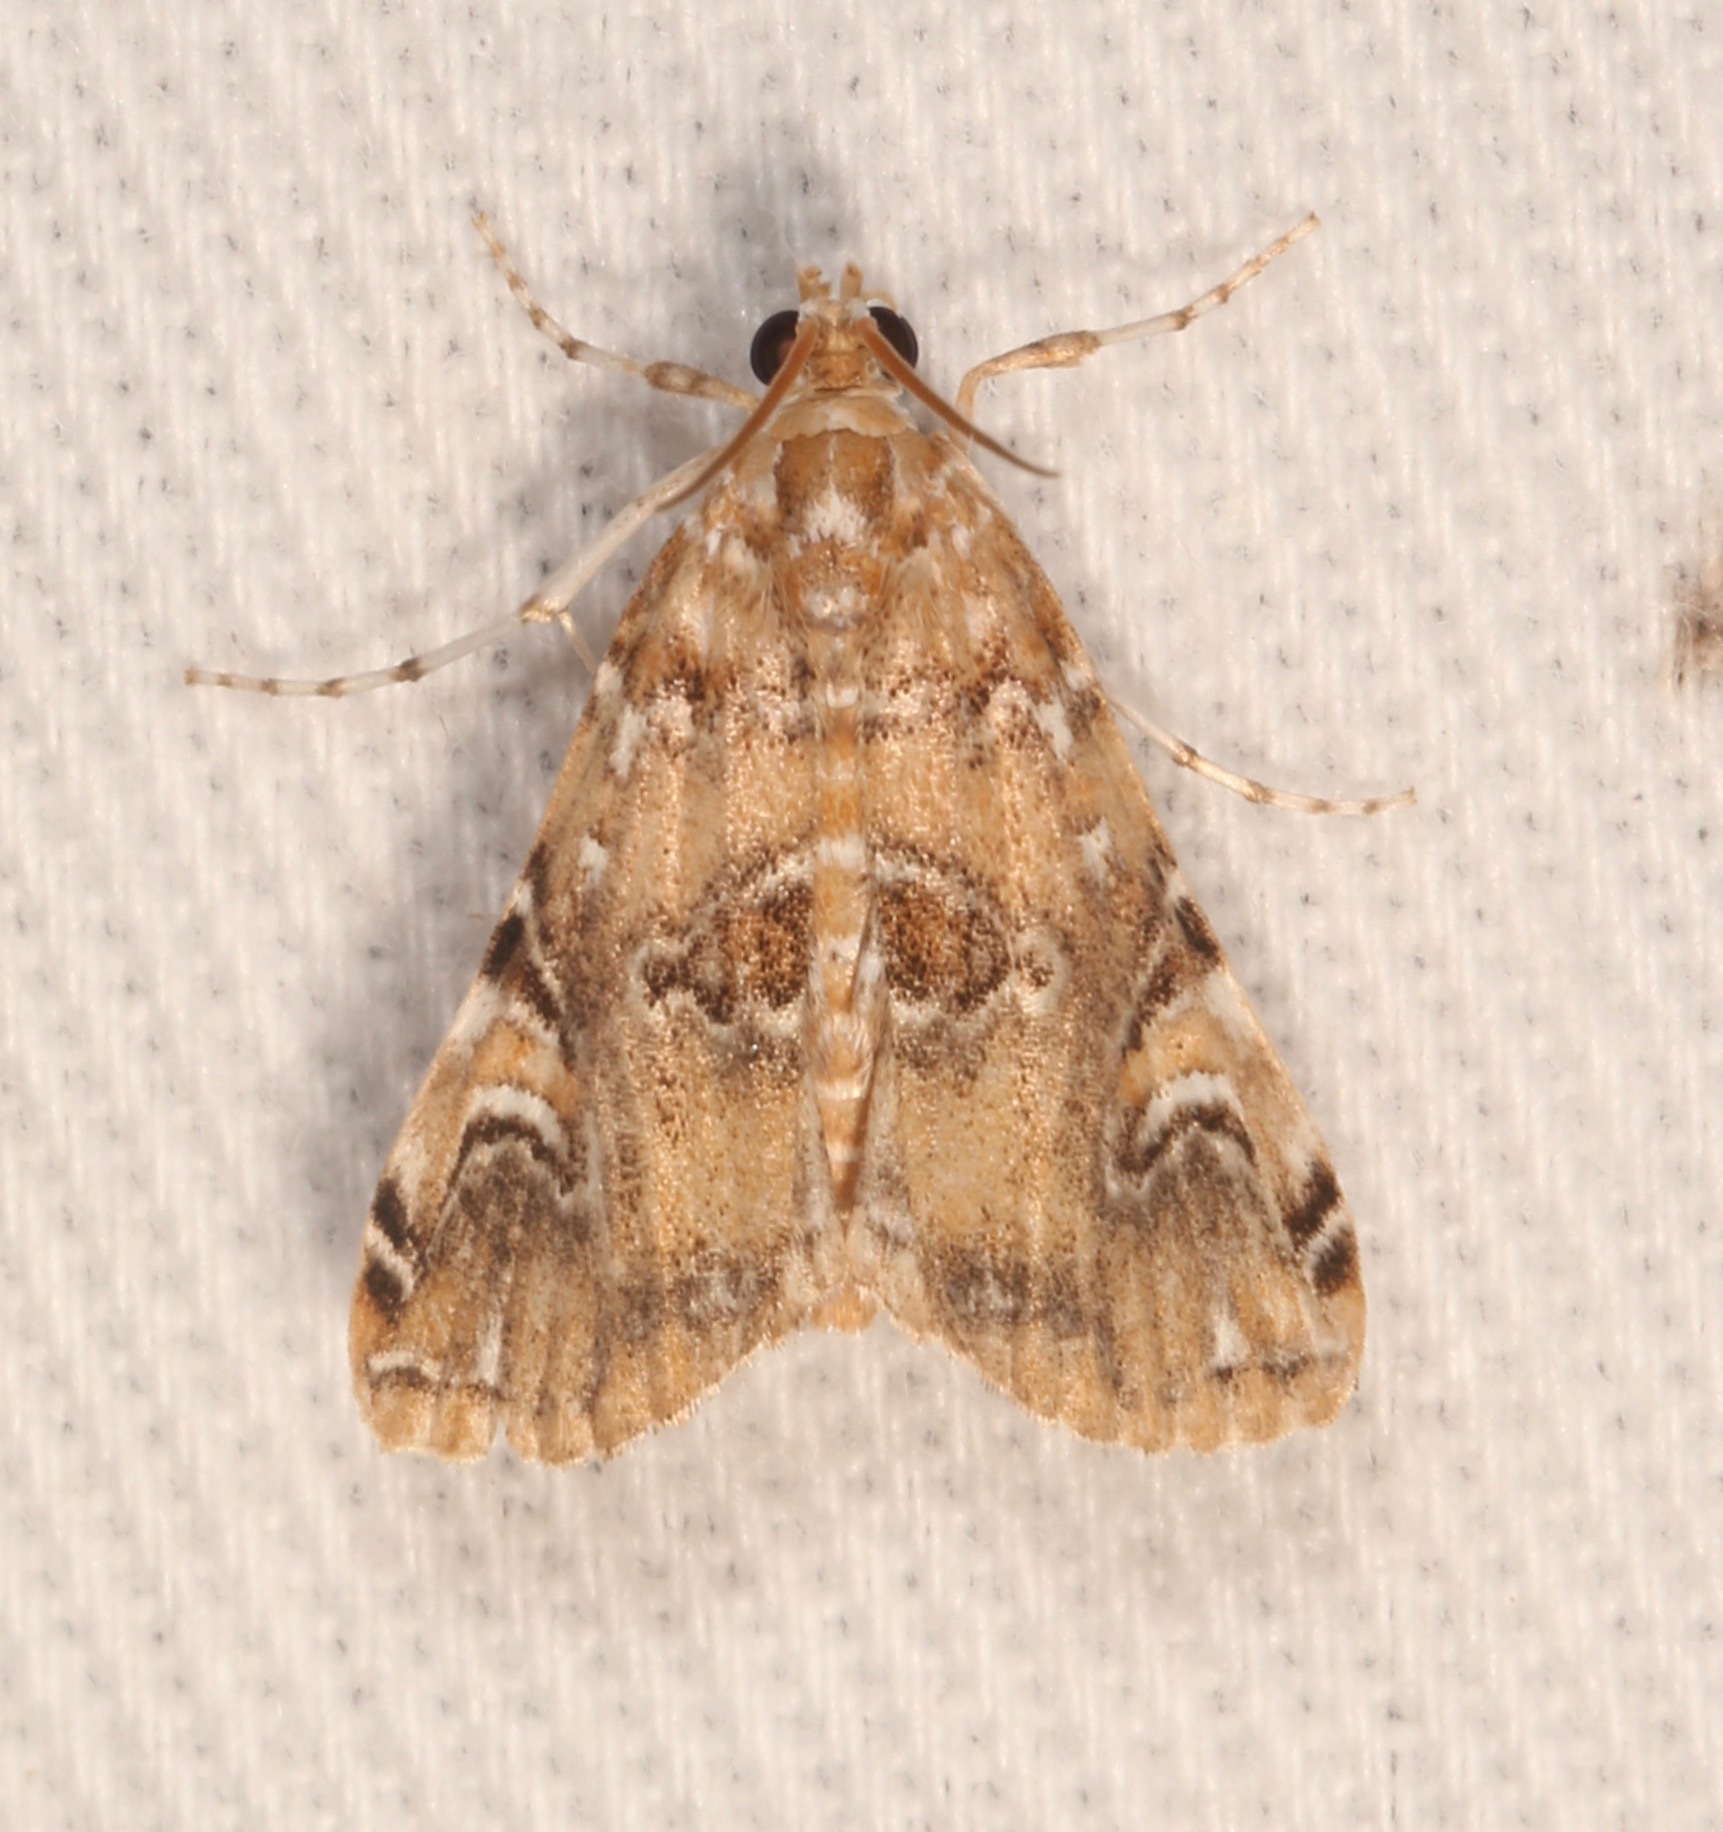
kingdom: Animalia
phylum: Arthropoda
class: Insecta
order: Lepidoptera
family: Crambidae
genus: Elophila
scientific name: Elophila gyralis
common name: Waterlily borer moth
